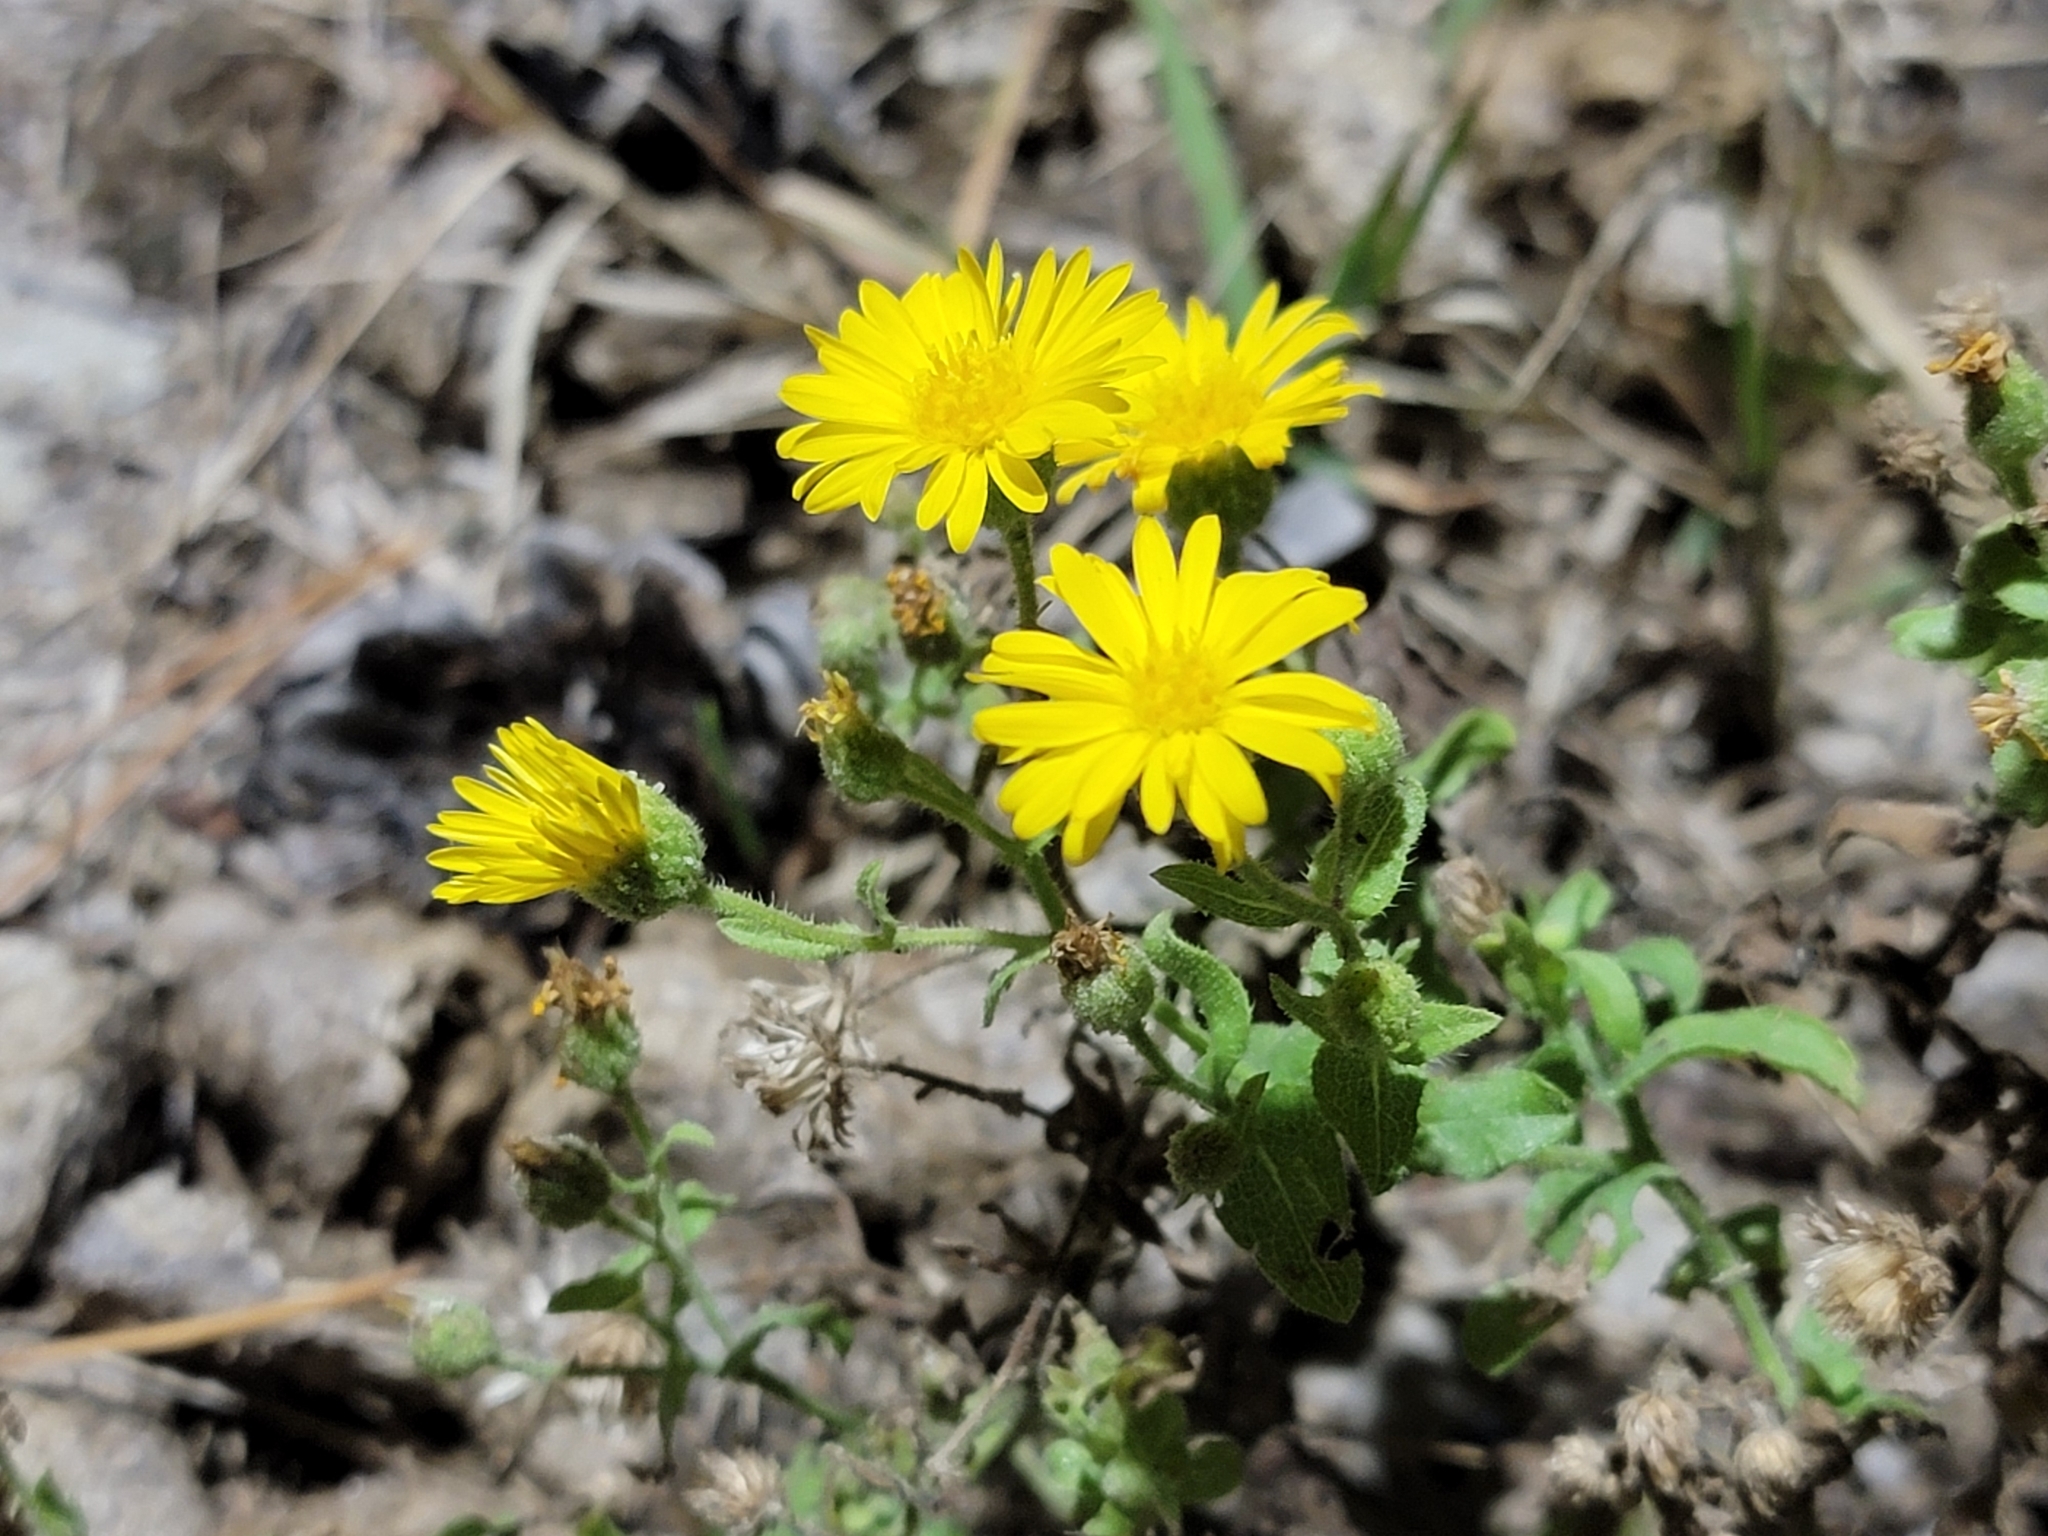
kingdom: Plantae
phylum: Tracheophyta
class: Magnoliopsida
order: Asterales
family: Asteraceae
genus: Heterotheca
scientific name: Heterotheca subaxillaris
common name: Camphorweed
